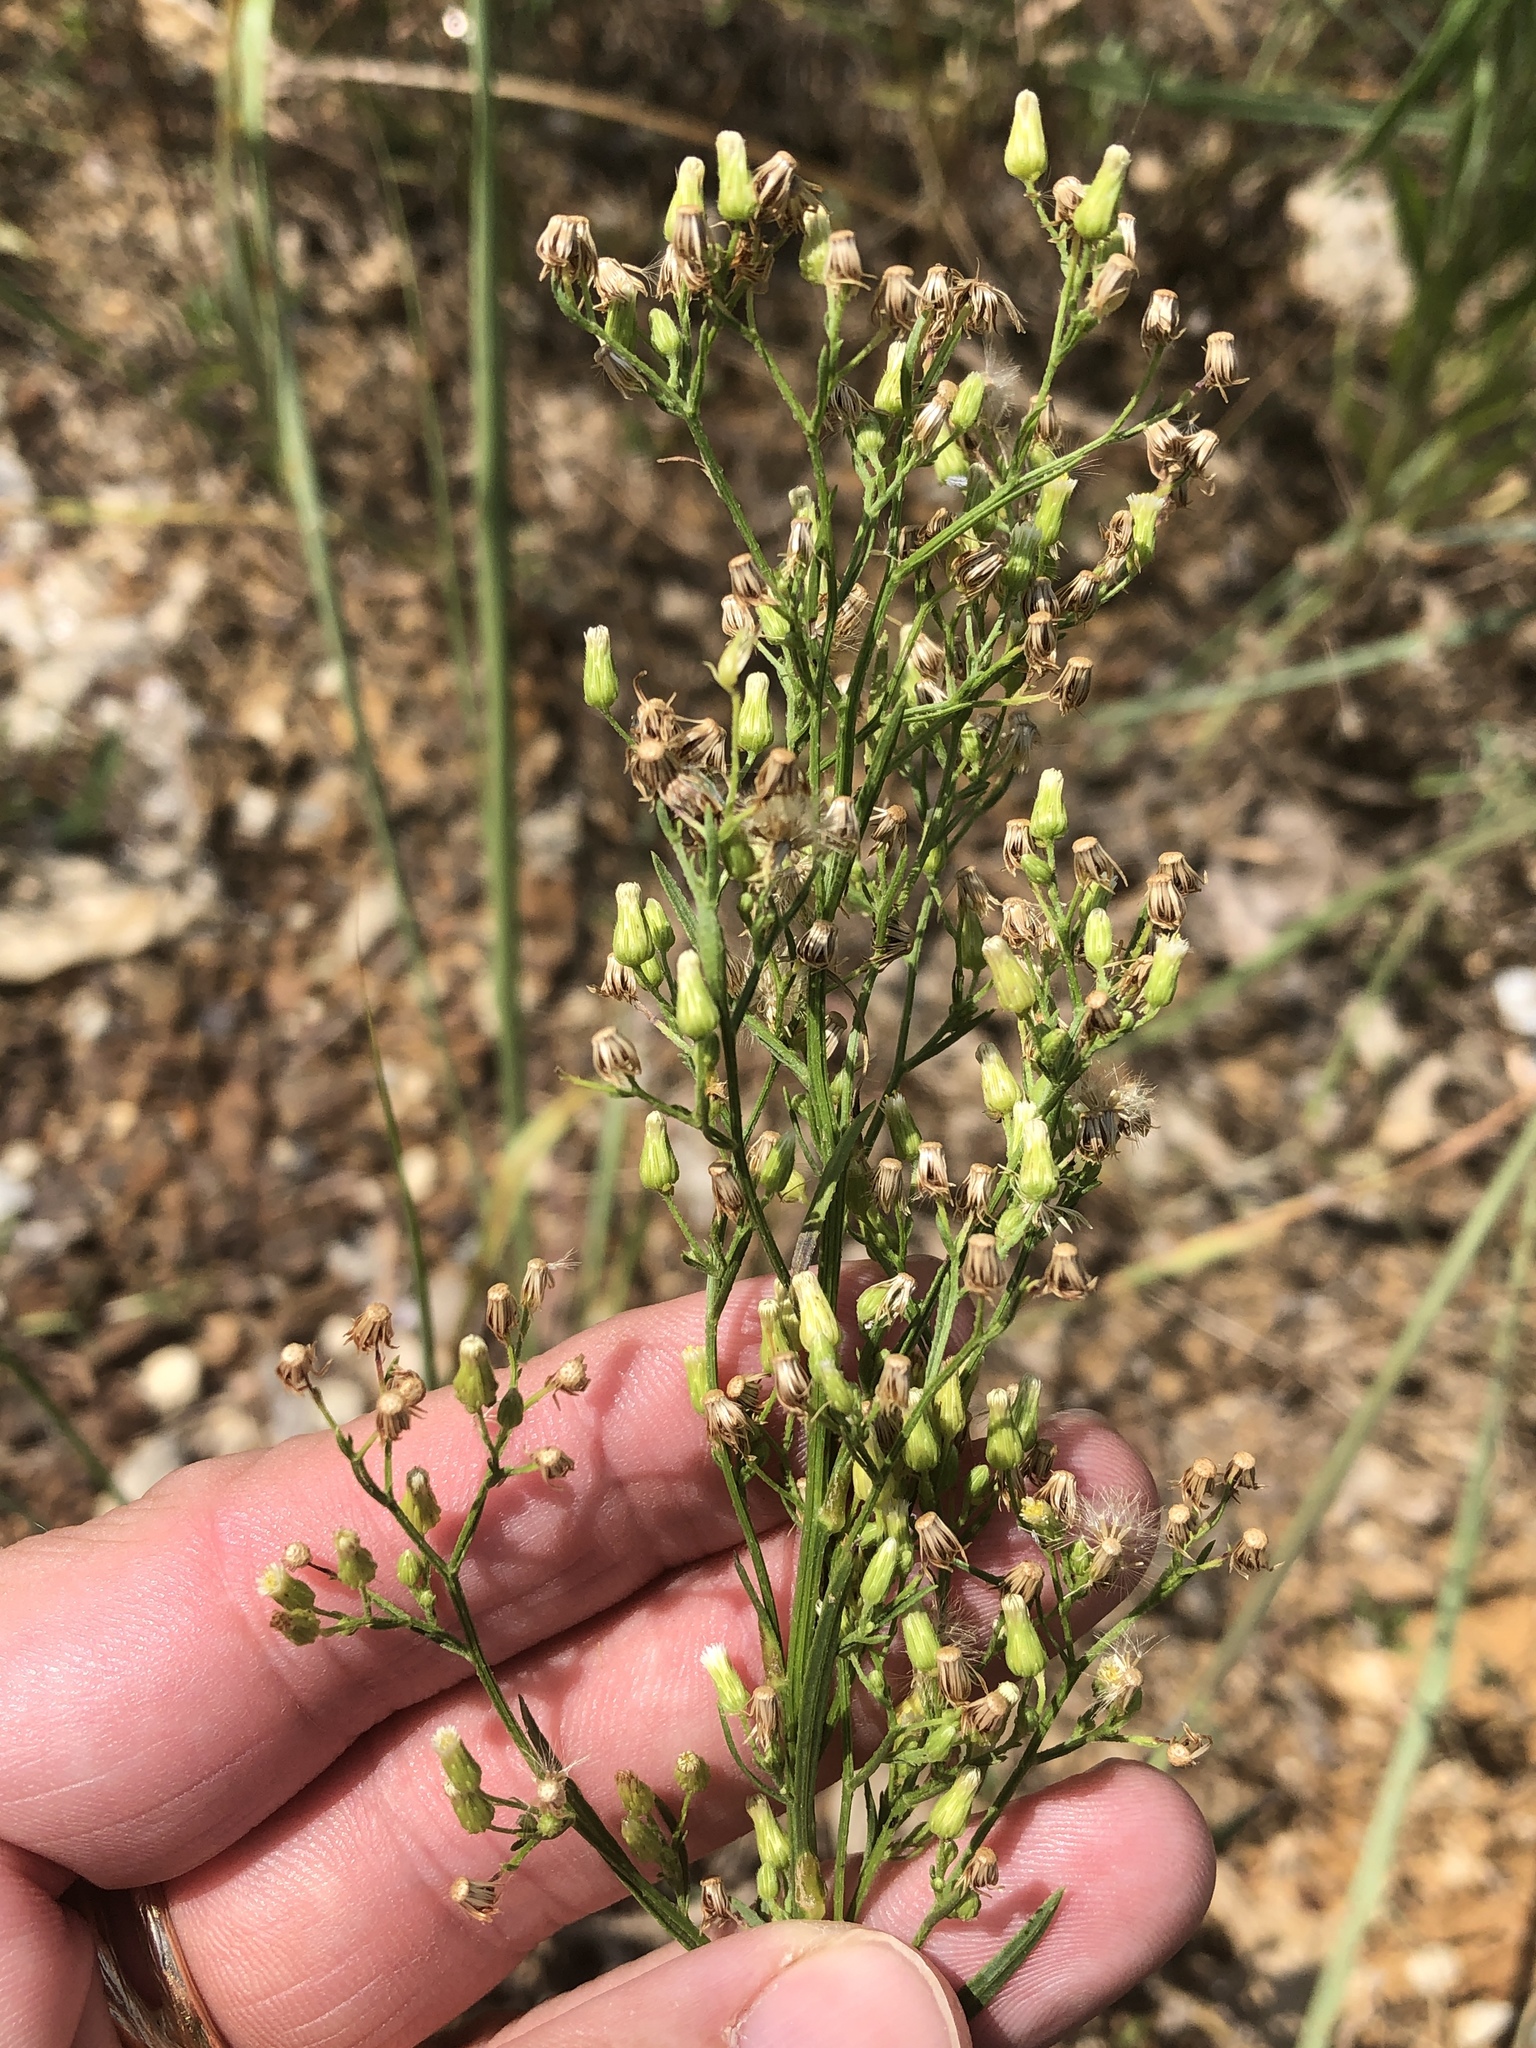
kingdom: Plantae
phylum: Tracheophyta
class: Magnoliopsida
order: Asterales
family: Asteraceae
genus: Erigeron
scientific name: Erigeron canadensis
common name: Canadian fleabane
